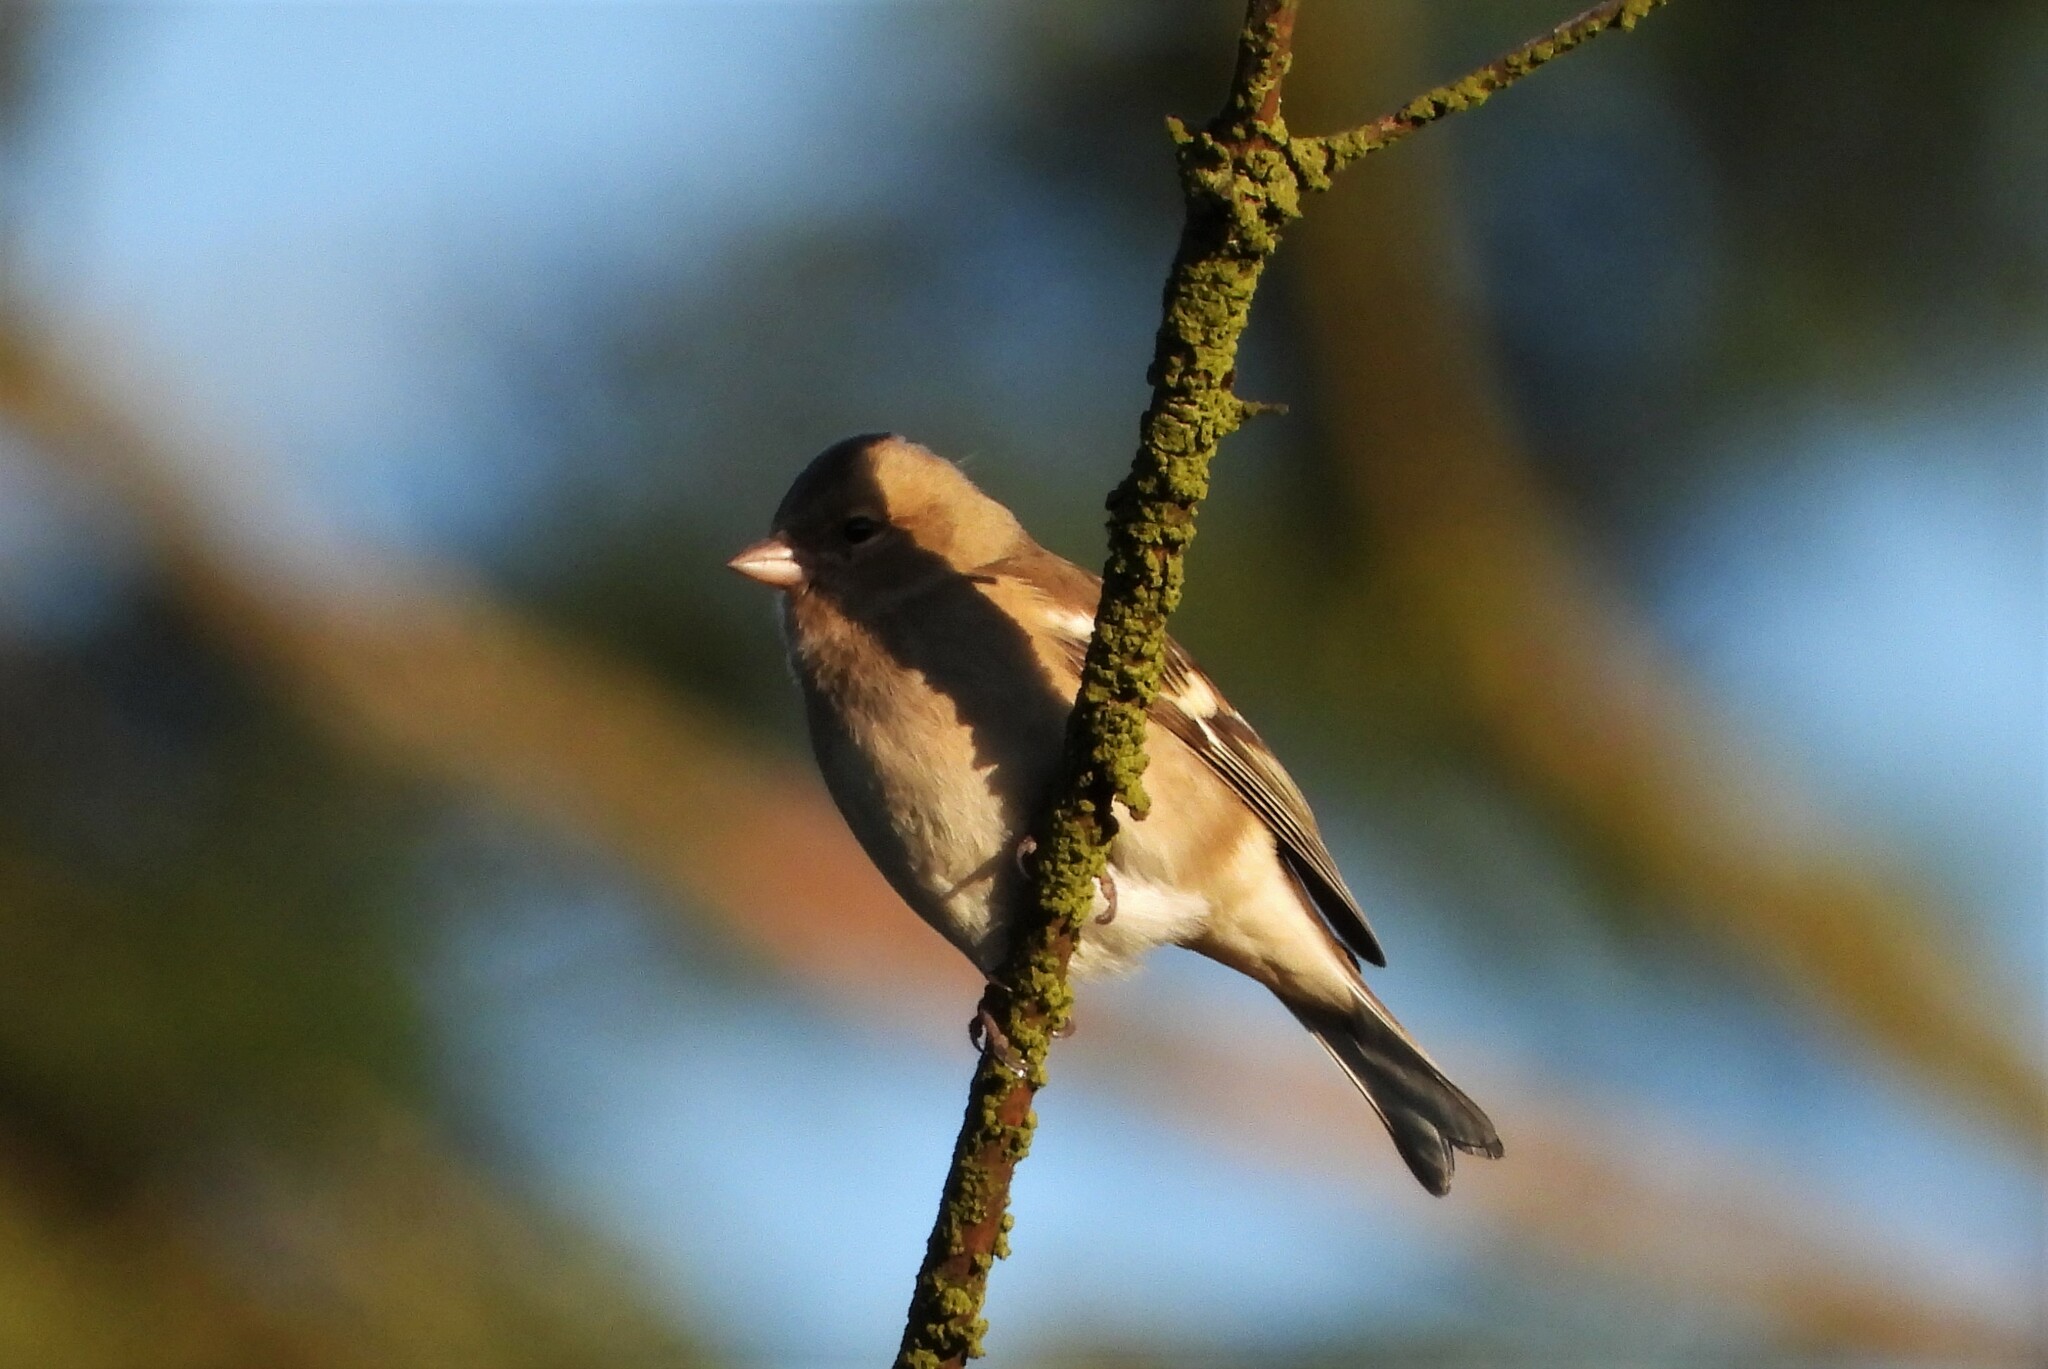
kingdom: Animalia
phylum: Chordata
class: Aves
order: Passeriformes
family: Fringillidae
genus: Fringilla
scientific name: Fringilla coelebs
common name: Common chaffinch
